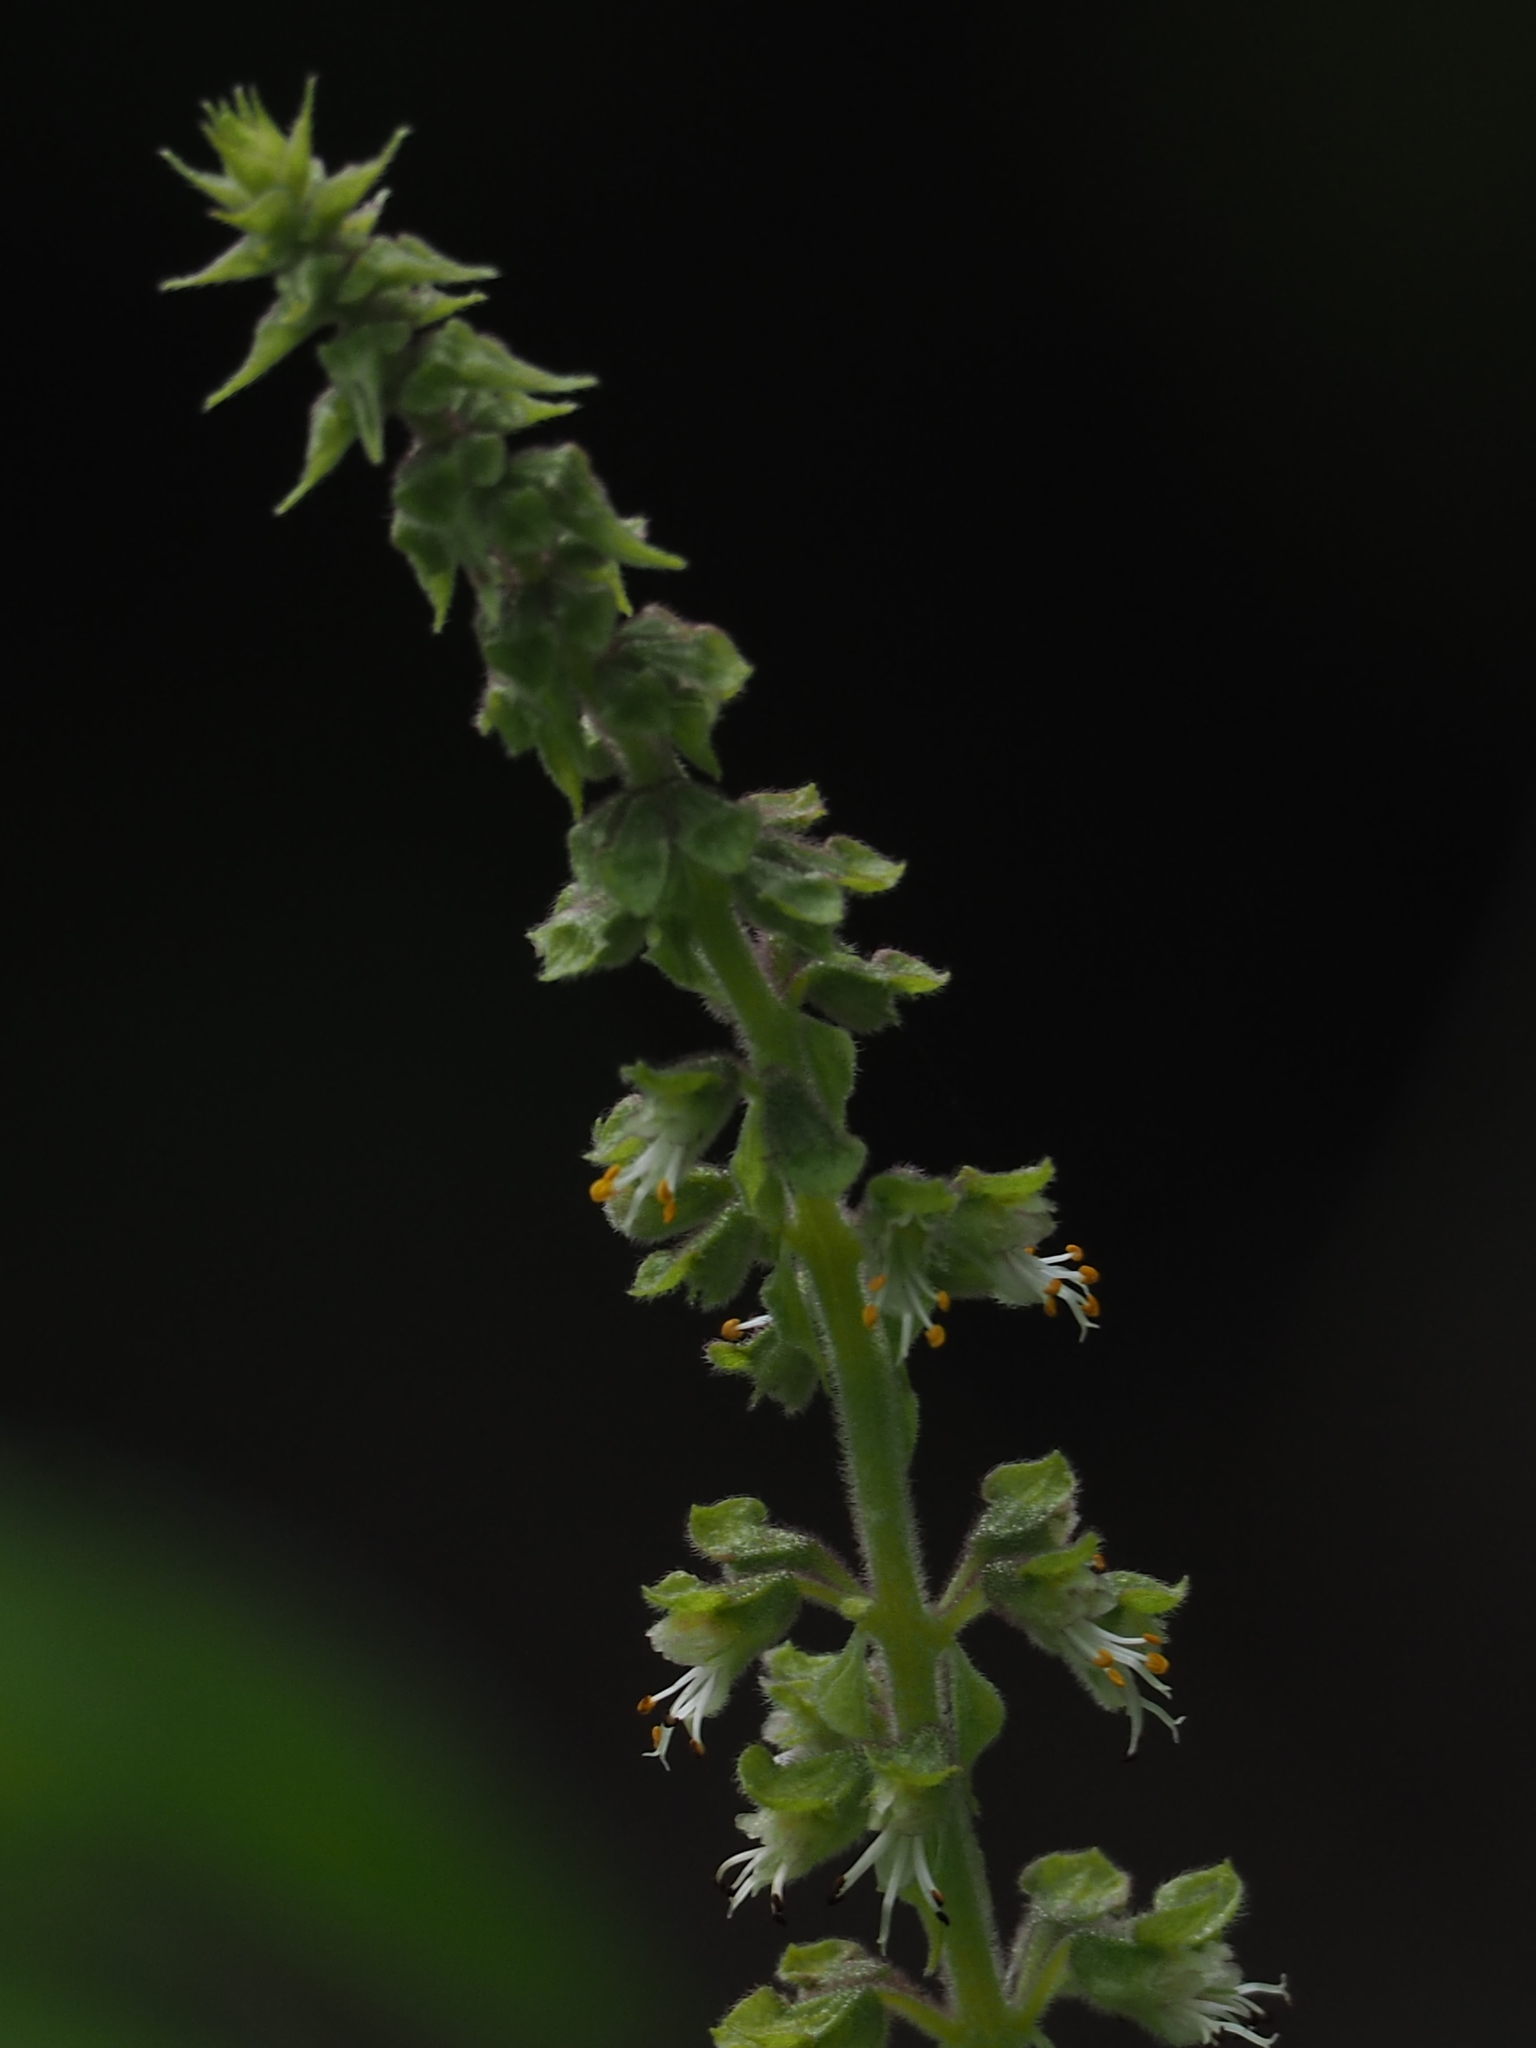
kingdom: Plantae
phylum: Tracheophyta
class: Magnoliopsida
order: Lamiales
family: Lamiaceae
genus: Ocimum
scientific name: Ocimum gratissimum
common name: African basil
